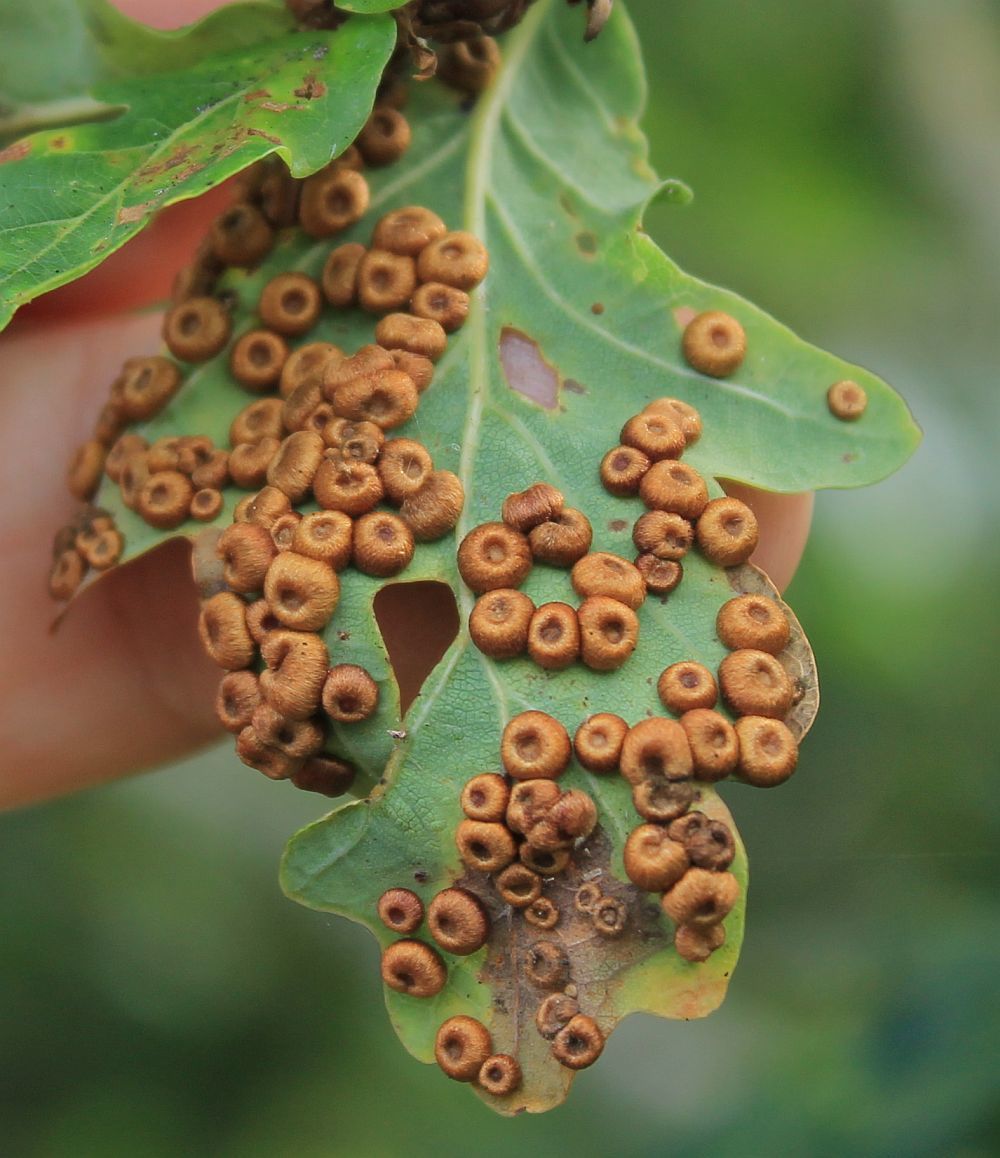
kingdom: Animalia
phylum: Arthropoda
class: Insecta
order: Hymenoptera
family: Cynipidae
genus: Neuroterus
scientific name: Neuroterus numismalis
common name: Silk-button spangle gall
